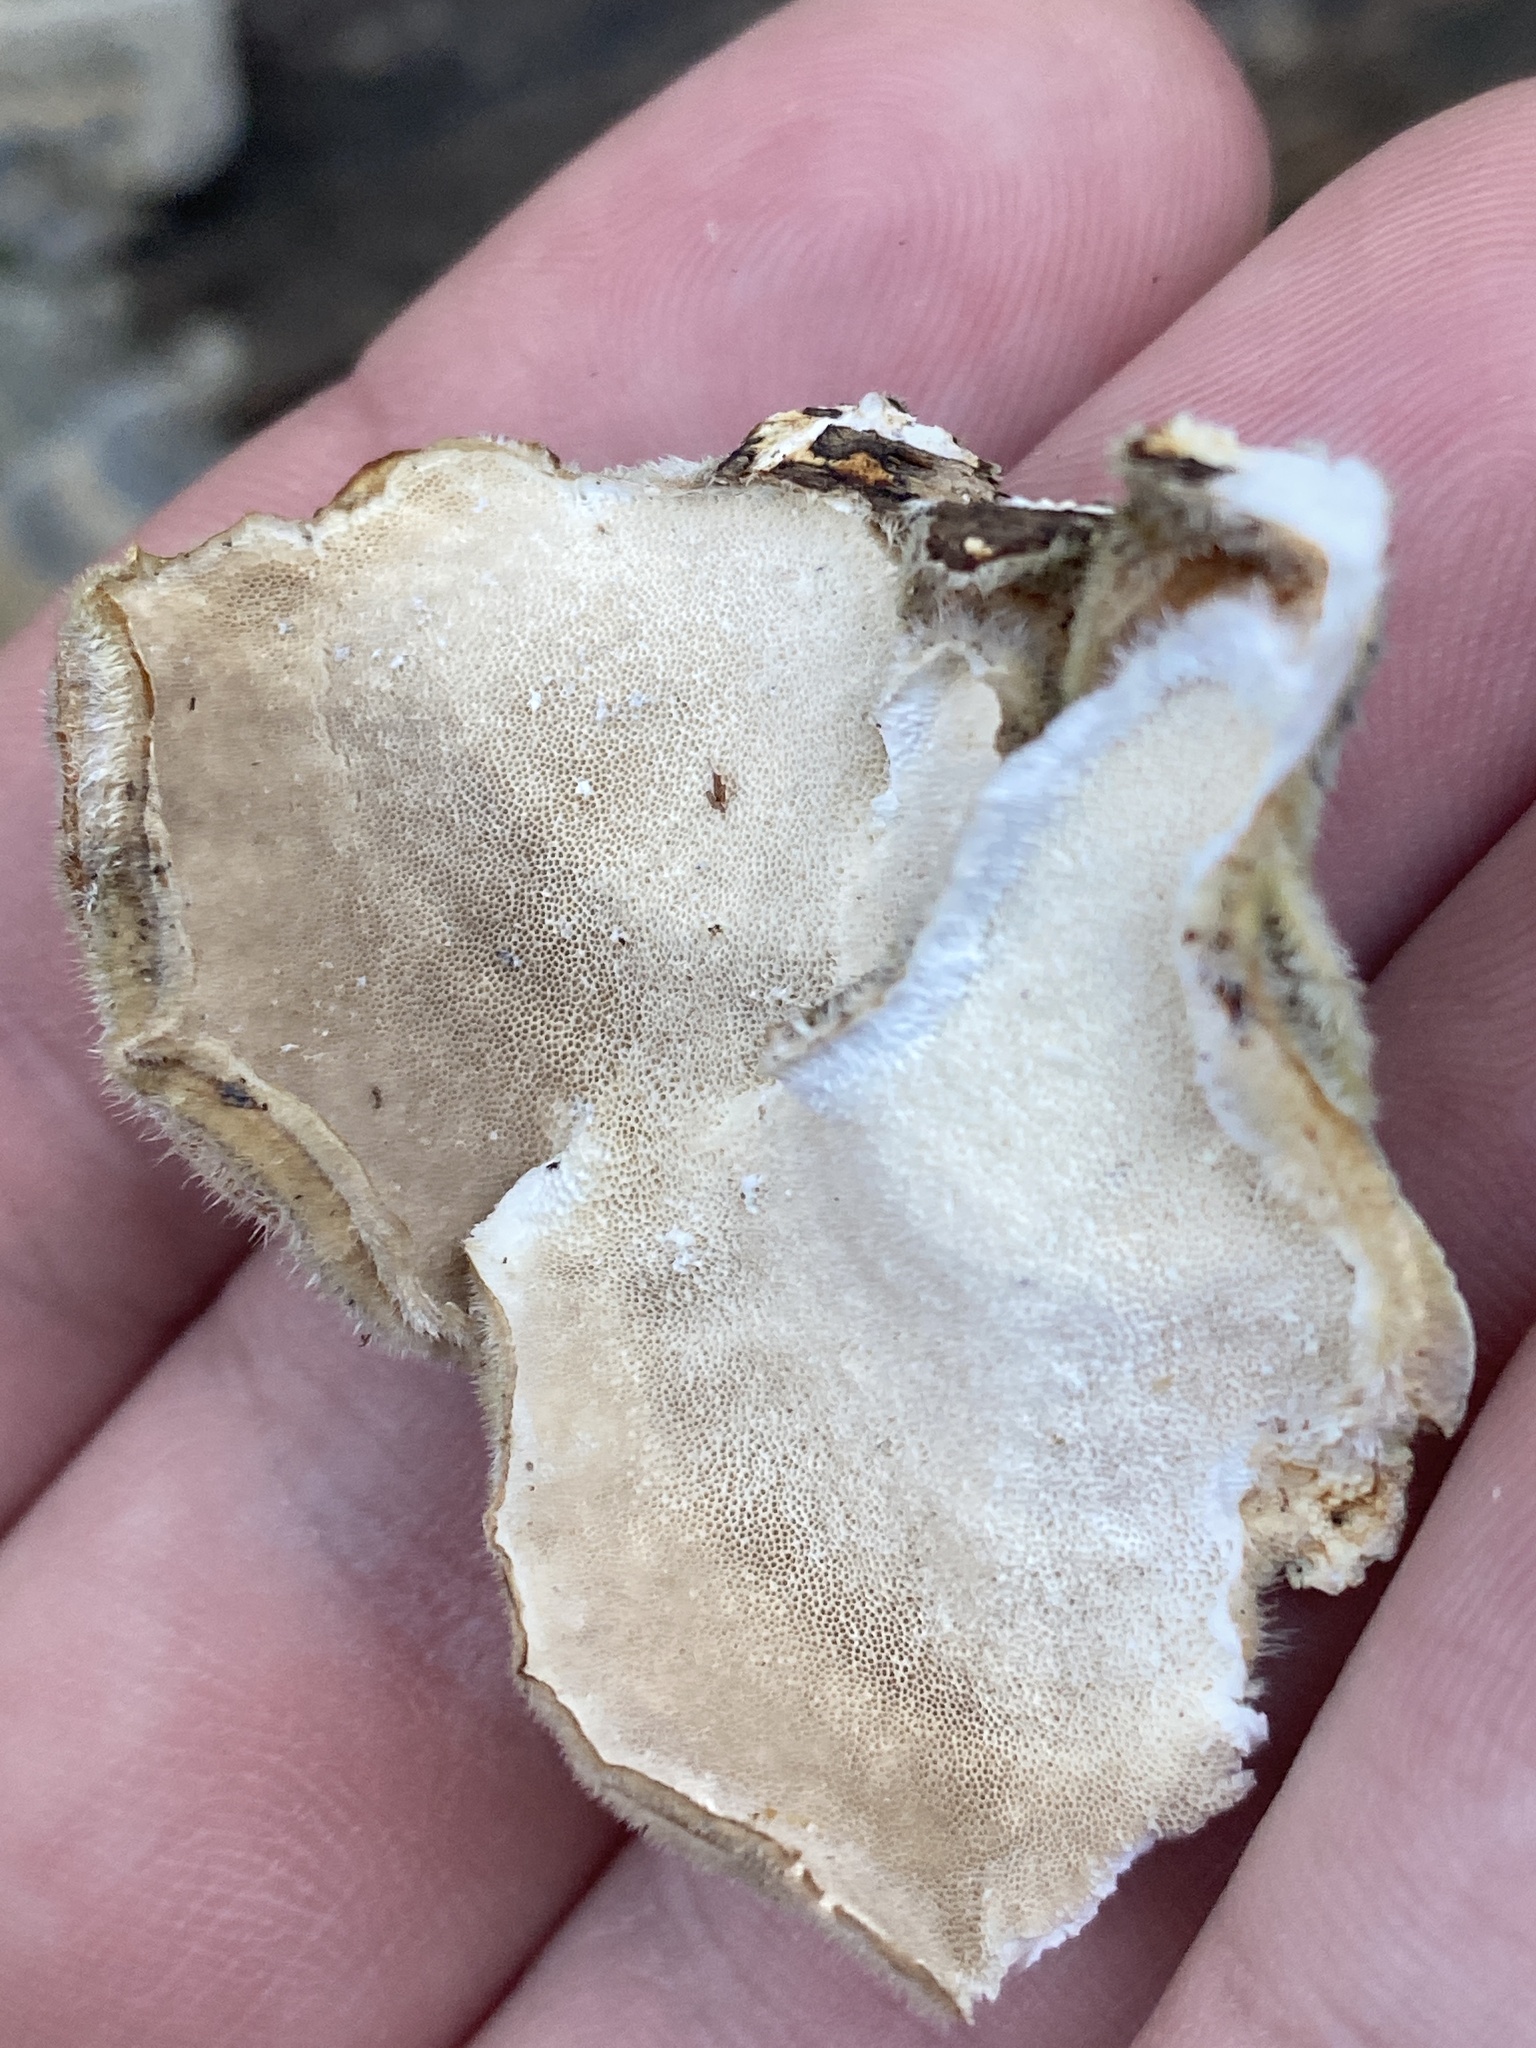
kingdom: Fungi
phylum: Basidiomycota
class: Agaricomycetes
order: Polyporales
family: Polyporaceae
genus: Trametes
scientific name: Trametes versicolor
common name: Turkeytail
